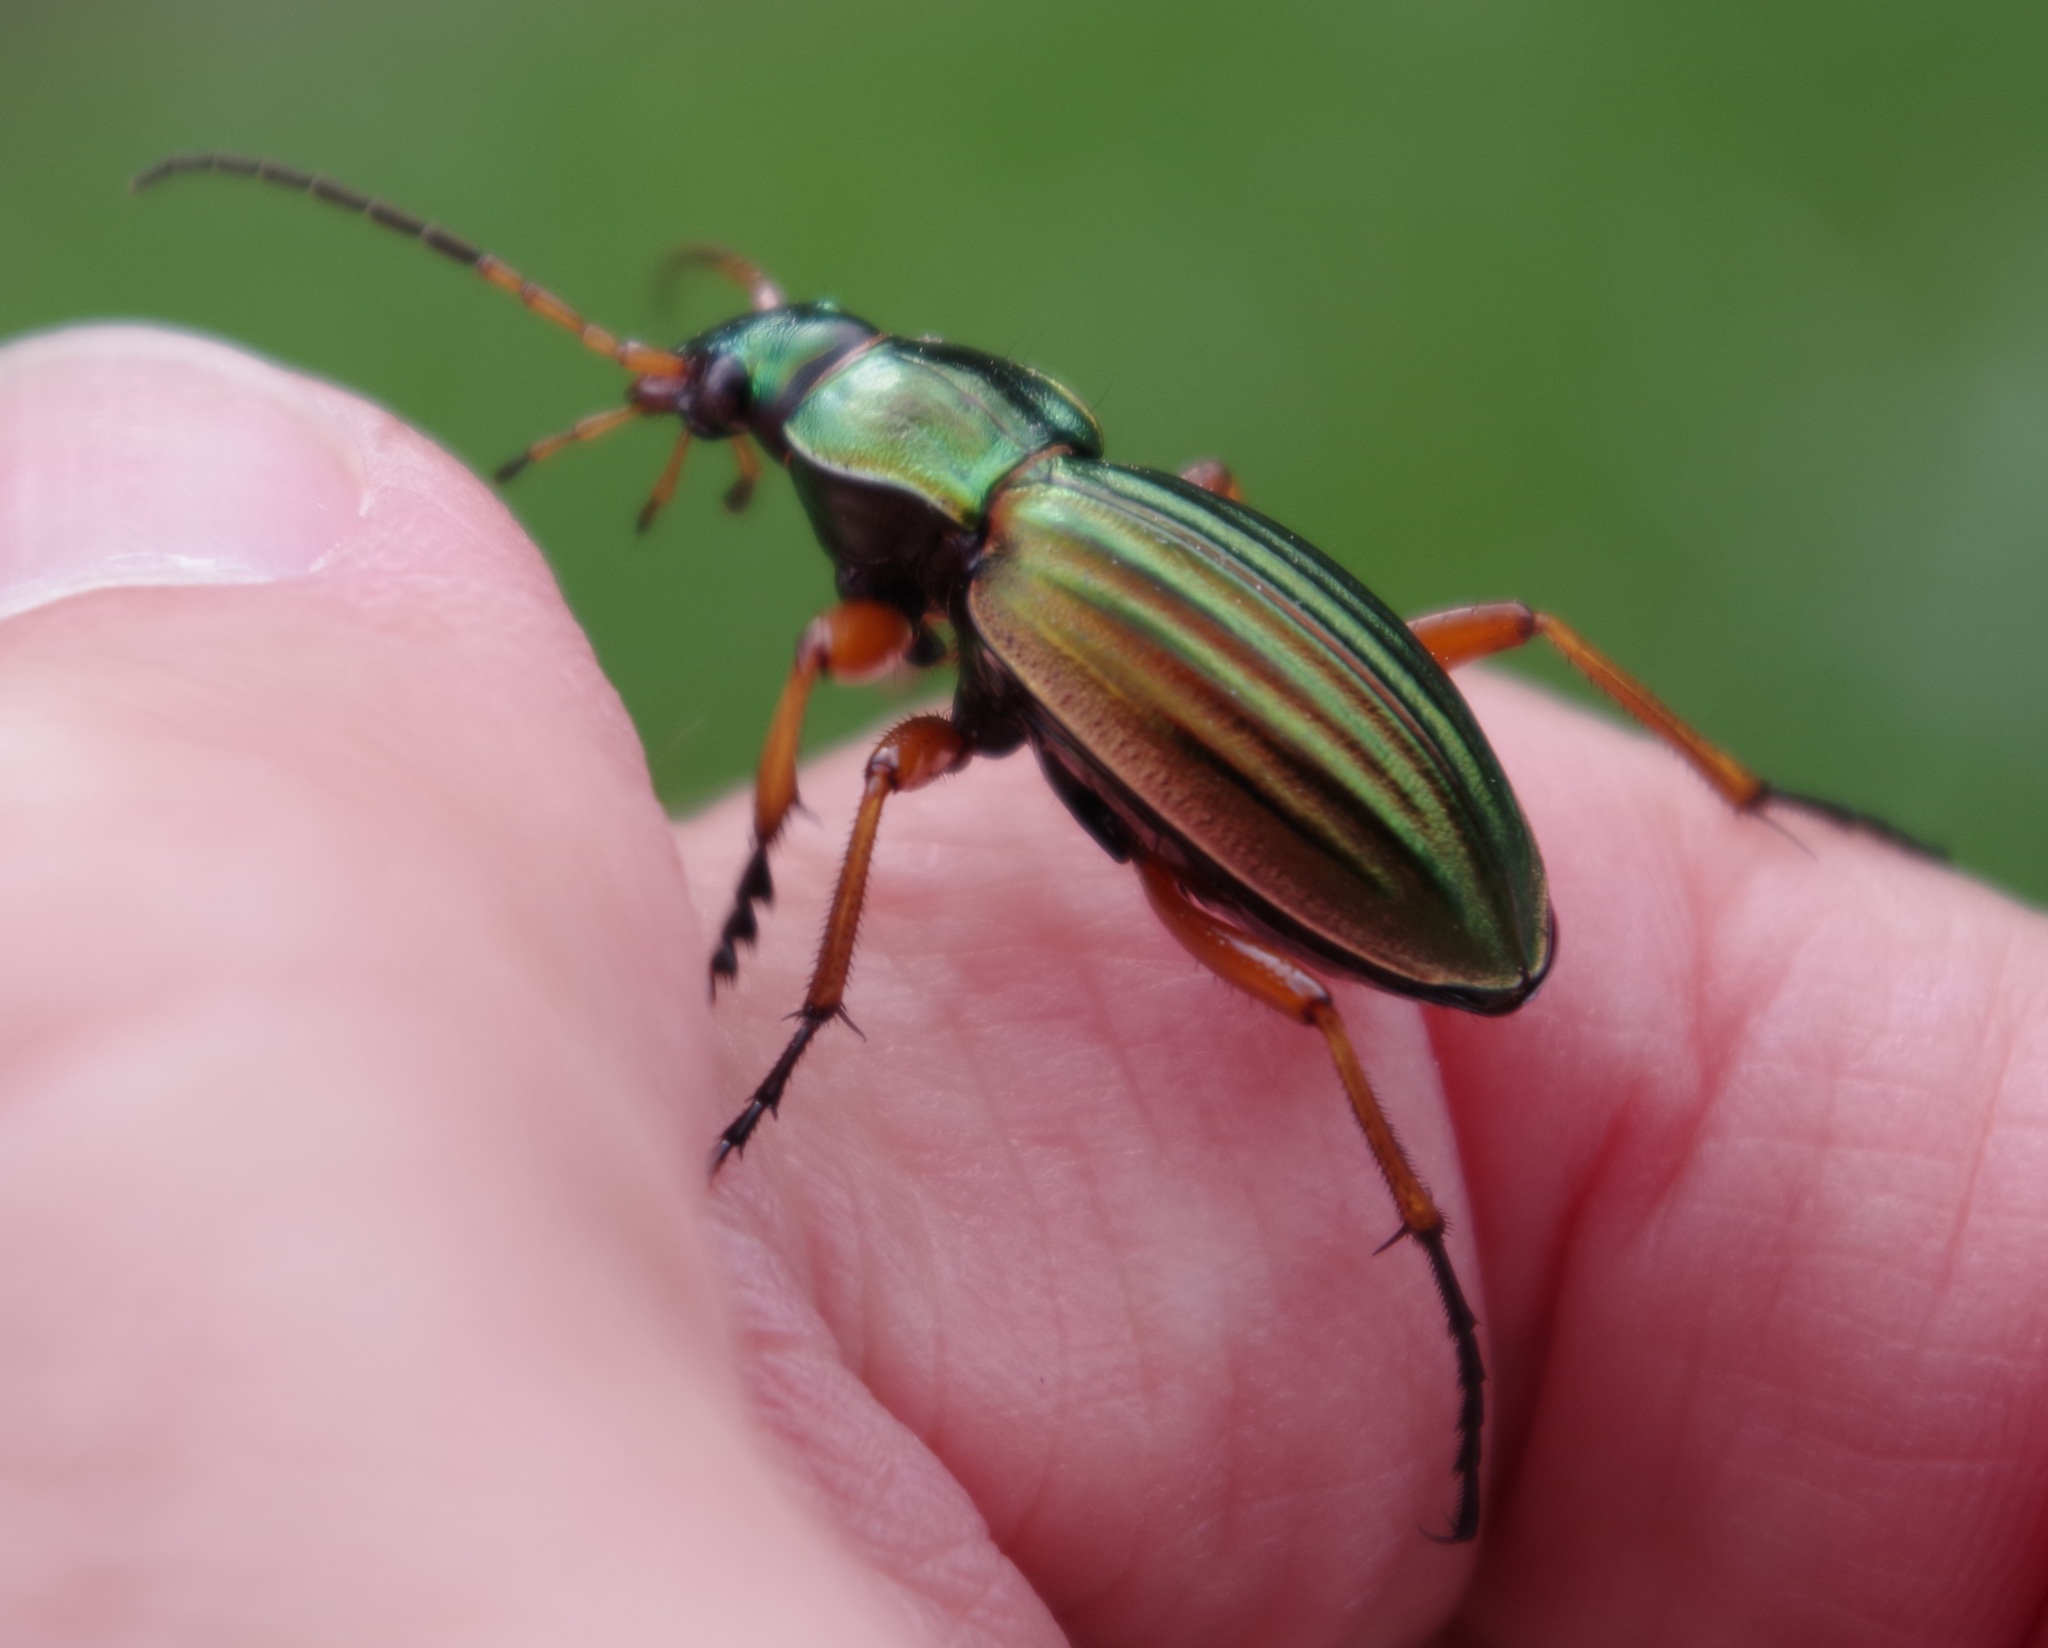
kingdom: Animalia
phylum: Arthropoda
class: Insecta
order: Coleoptera
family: Carabidae
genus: Carabus
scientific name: Carabus auratus
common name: Golden ground beetle
